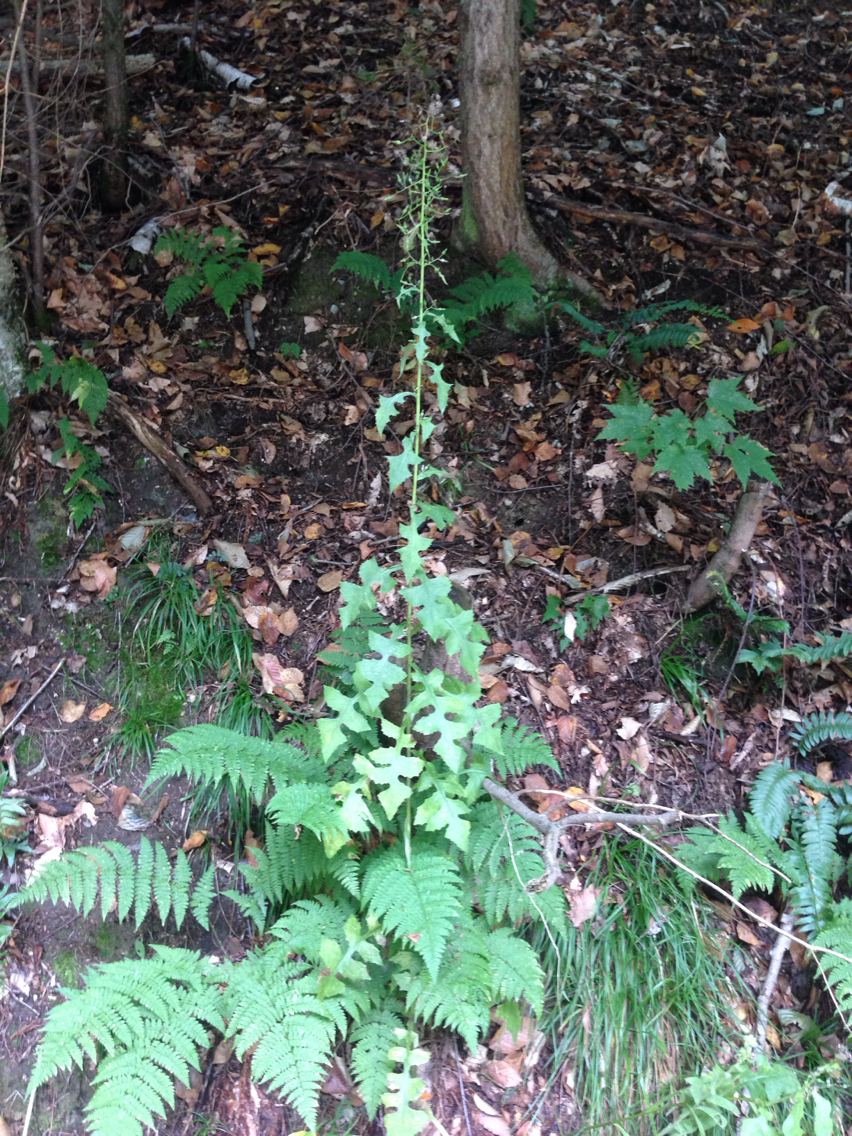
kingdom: Plantae
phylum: Tracheophyta
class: Magnoliopsida
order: Asterales
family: Asteraceae
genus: Lactuca
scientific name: Lactuca biennis
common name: Blue wood lettuce
